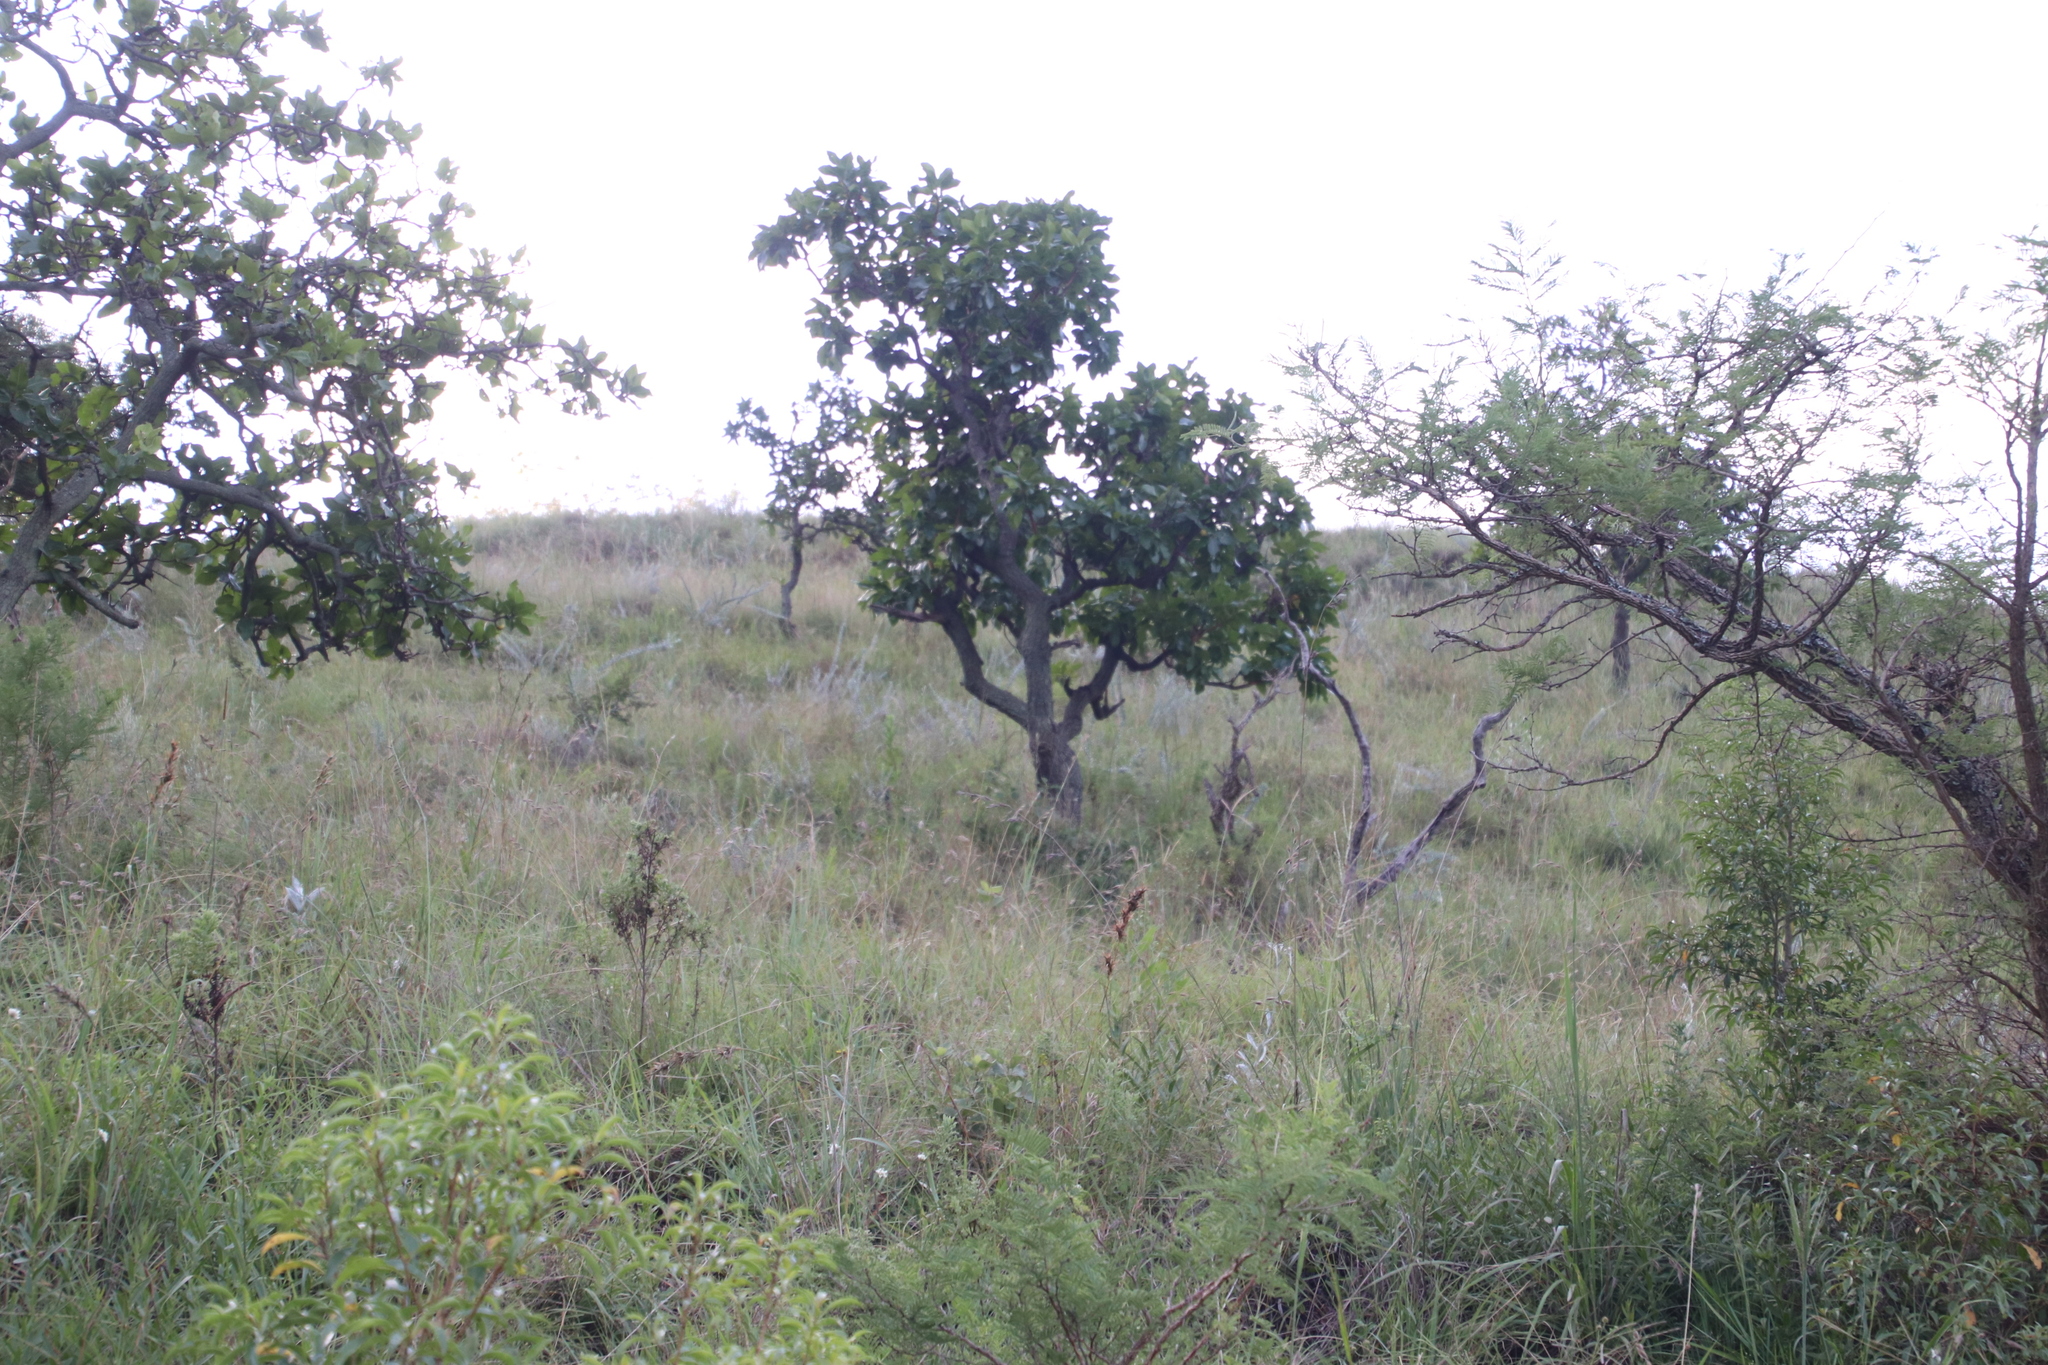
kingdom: Plantae
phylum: Tracheophyta
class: Magnoliopsida
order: Proteales
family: Proteaceae
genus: Faurea
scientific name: Faurea rochetiana
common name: Broad-leaved beech
